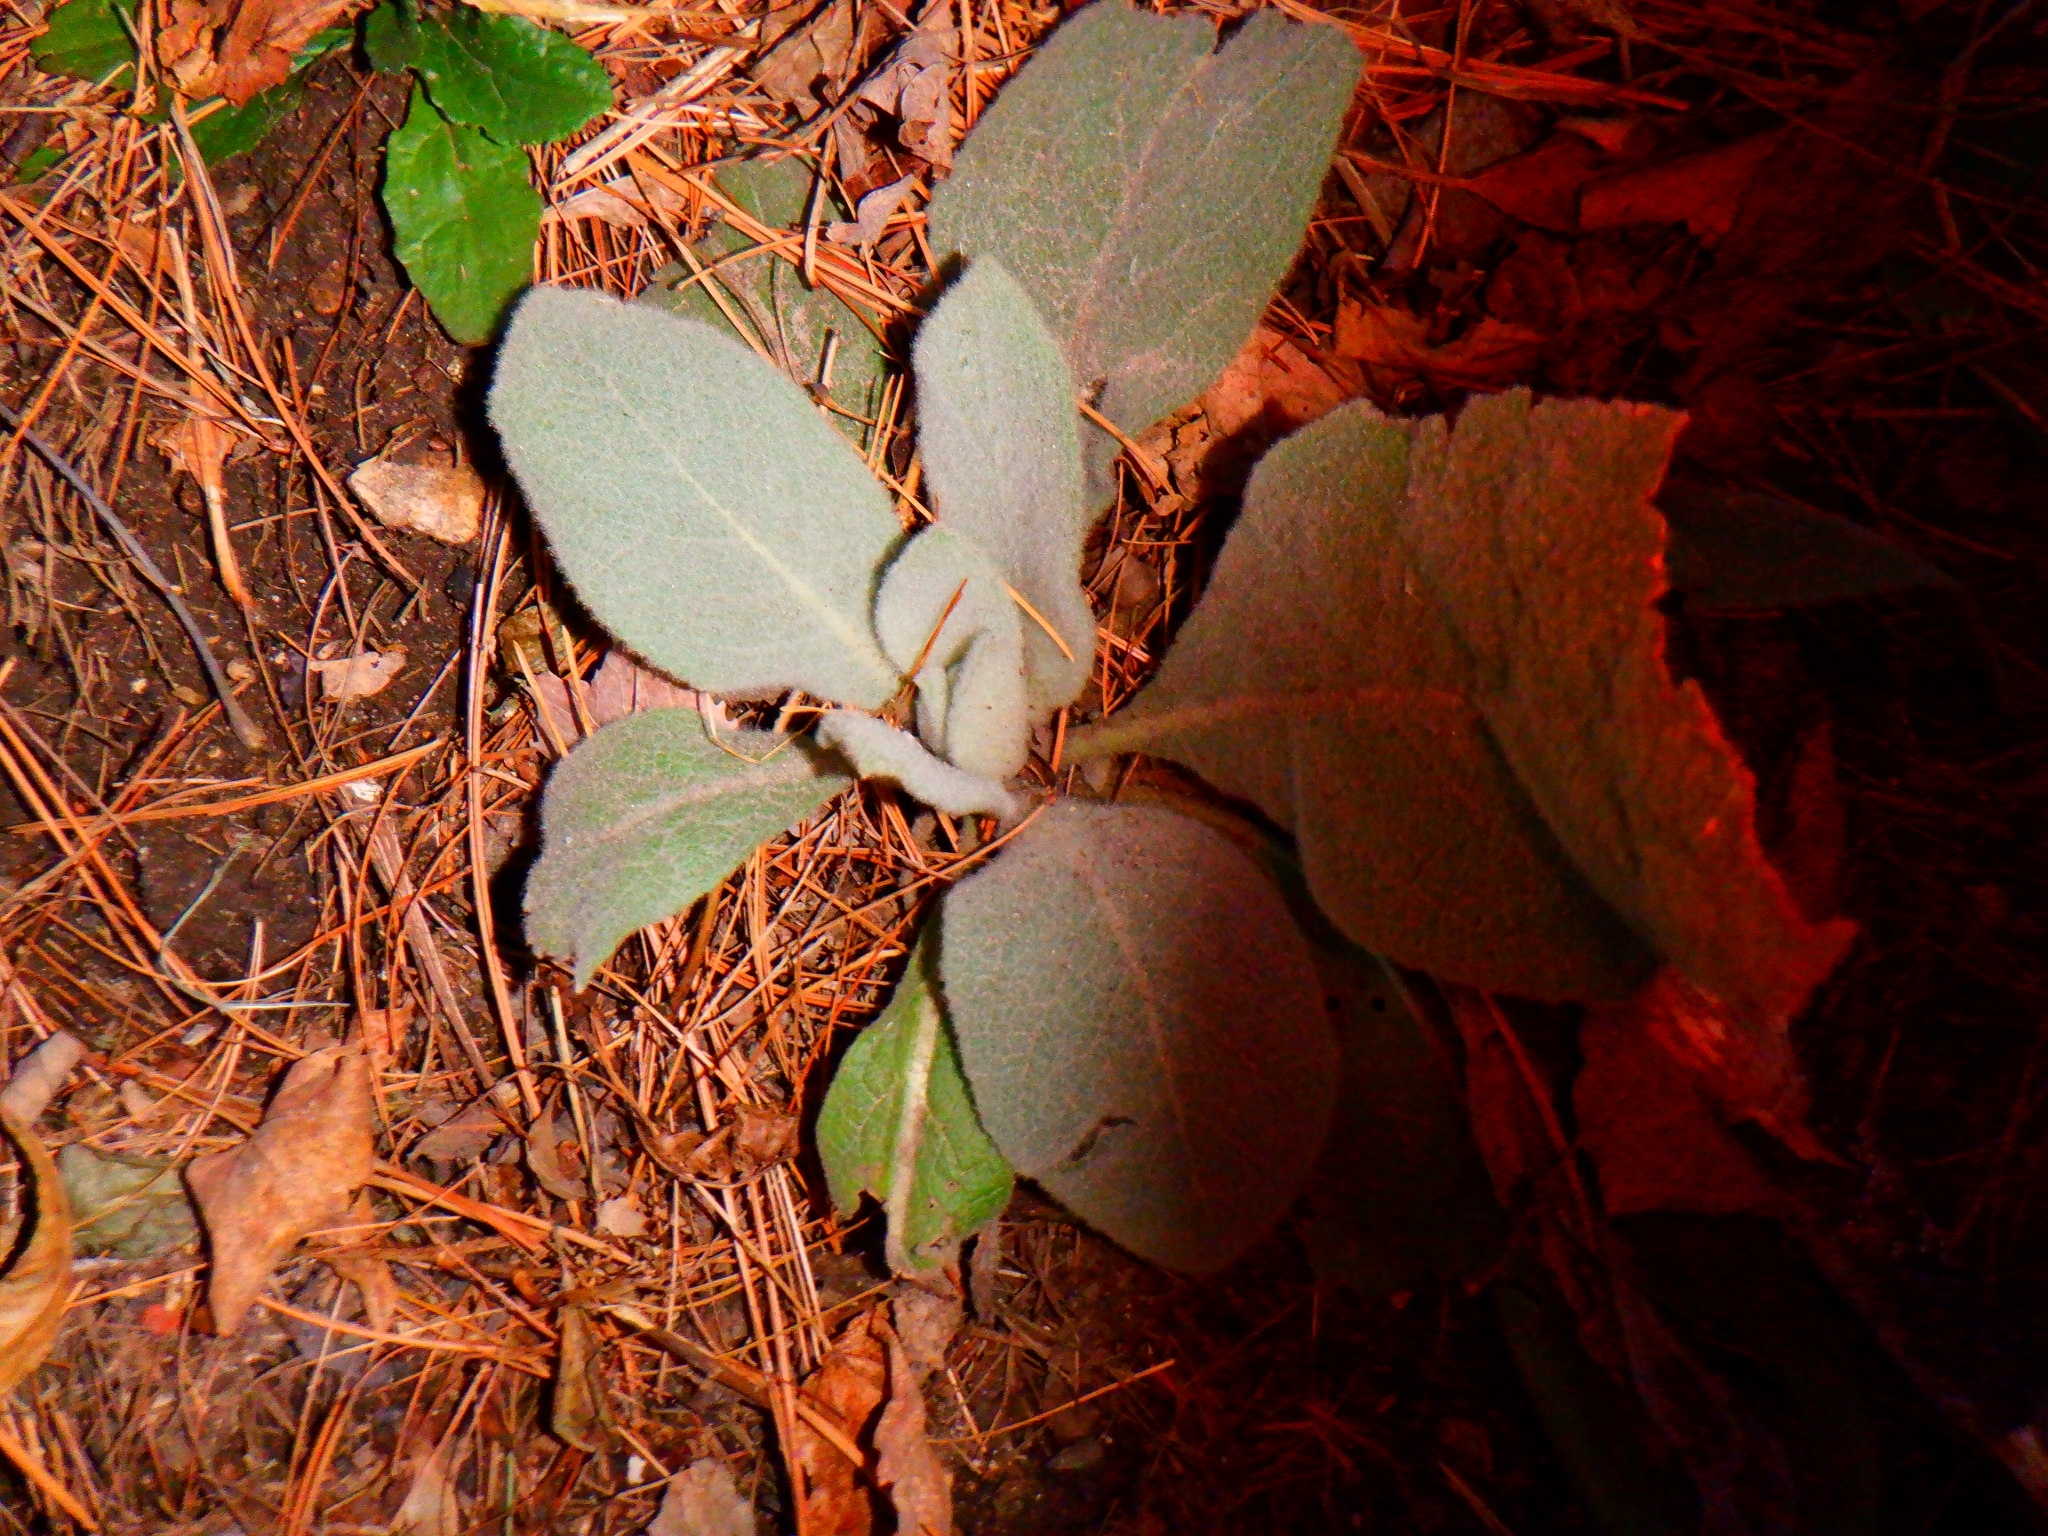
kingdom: Plantae
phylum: Tracheophyta
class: Magnoliopsida
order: Lamiales
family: Scrophulariaceae
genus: Verbascum
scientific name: Verbascum thapsus
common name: Common mullein
